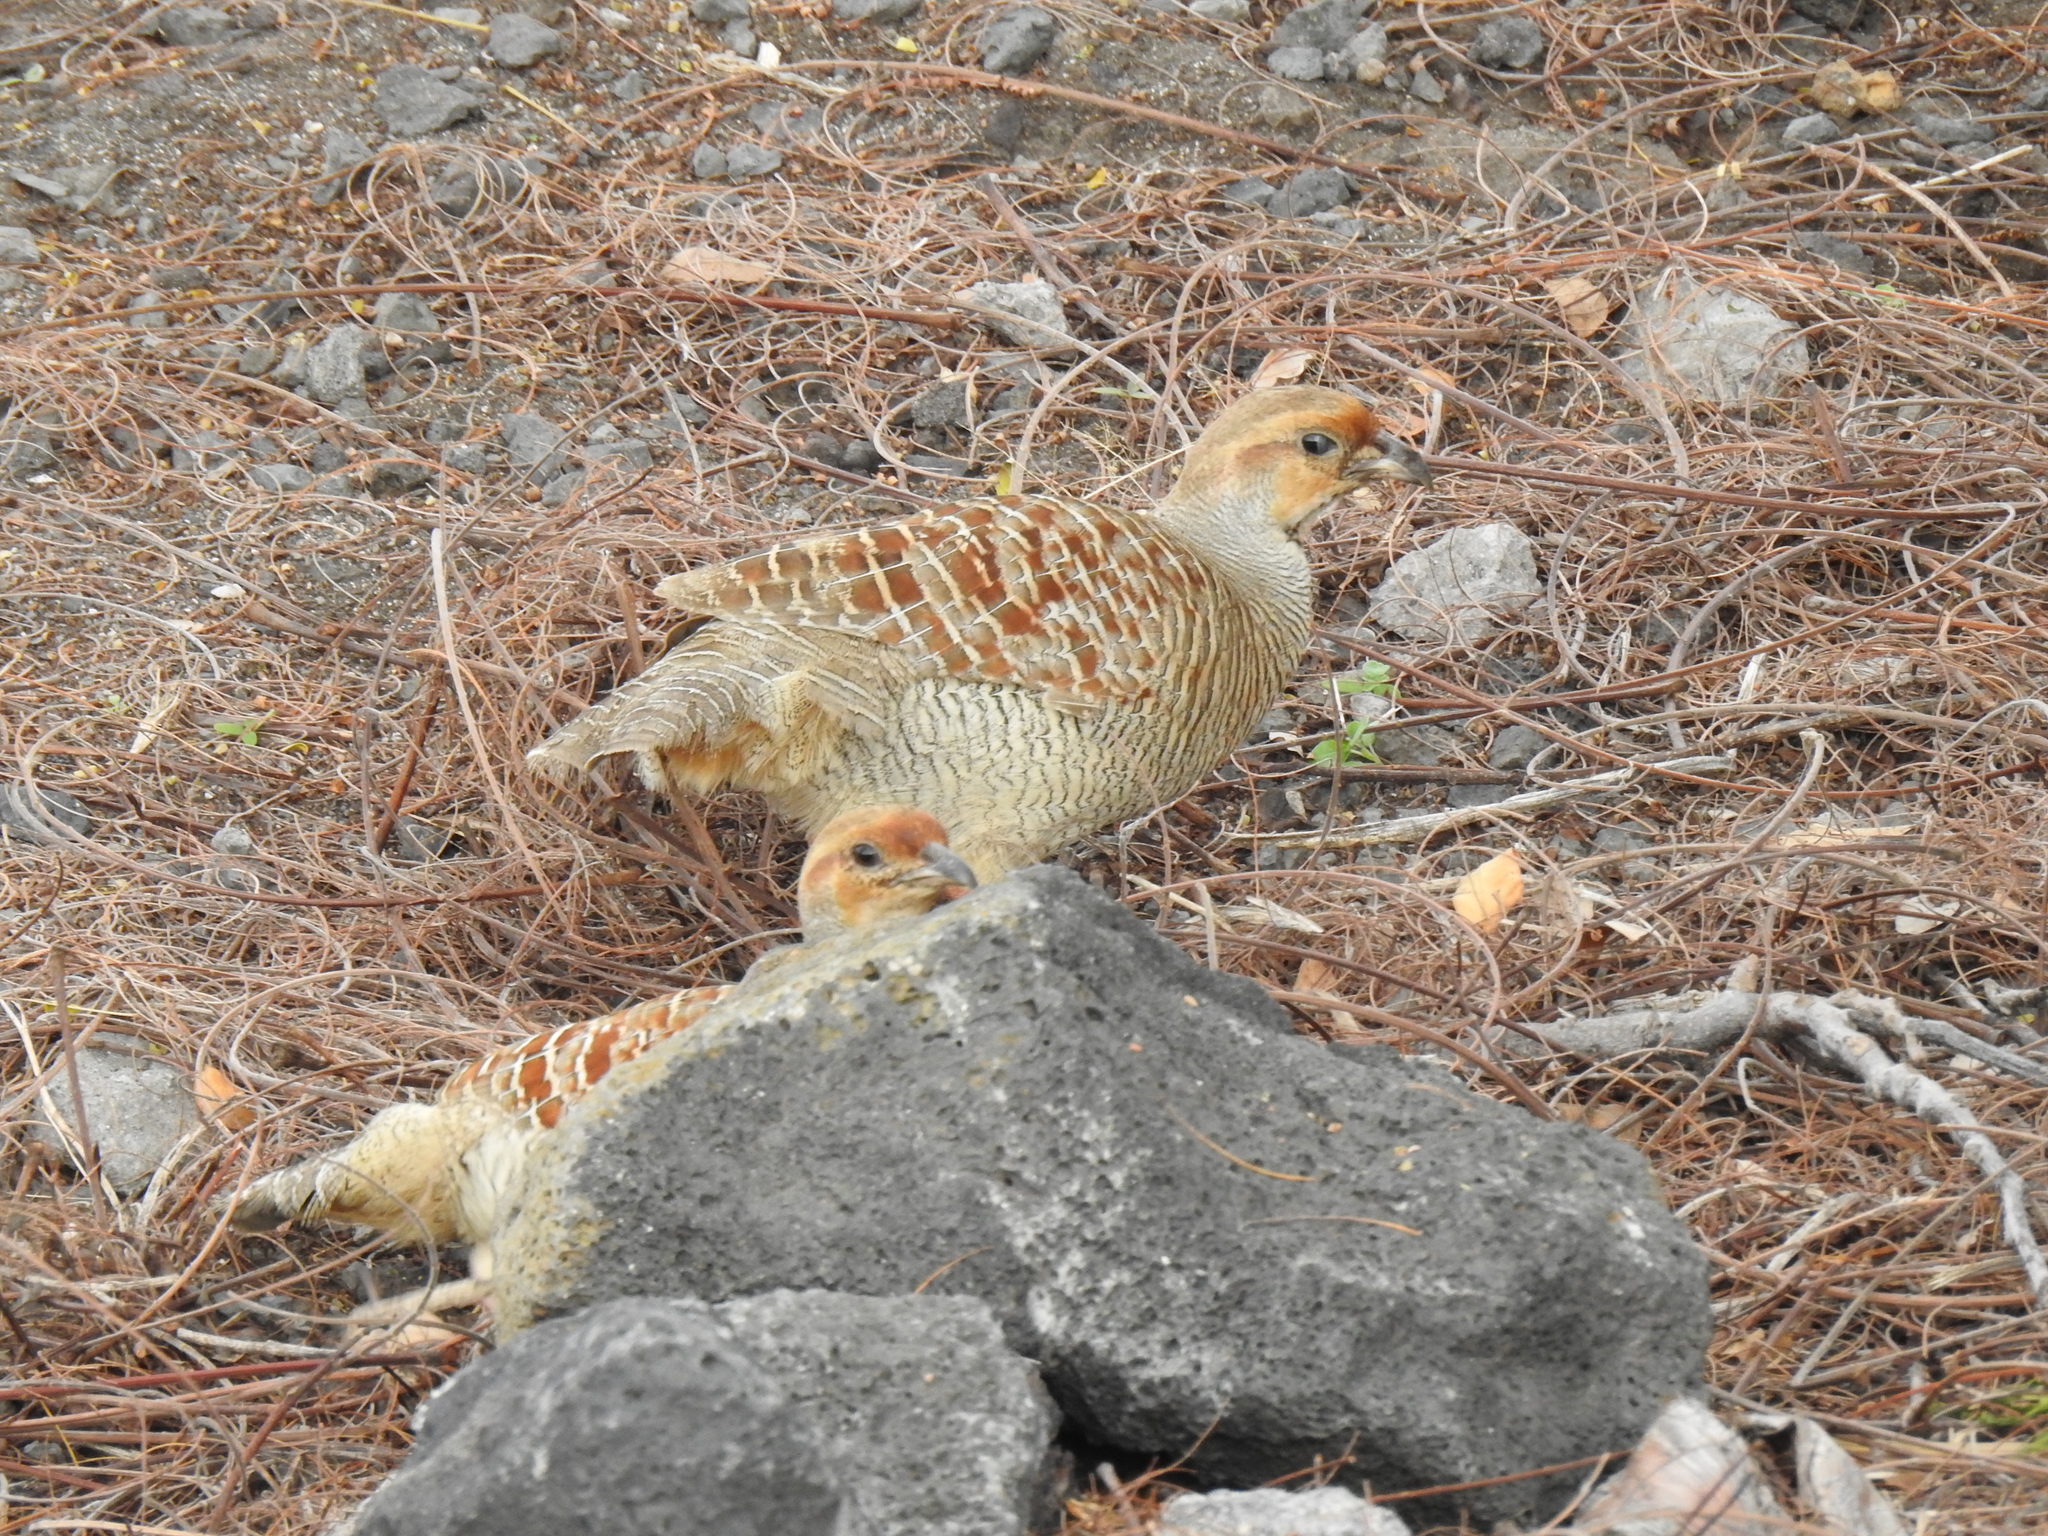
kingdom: Animalia
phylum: Chordata
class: Aves
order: Galliformes
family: Phasianidae
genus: Ortygornis
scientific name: Ortygornis pondicerianus
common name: Grey francolin
